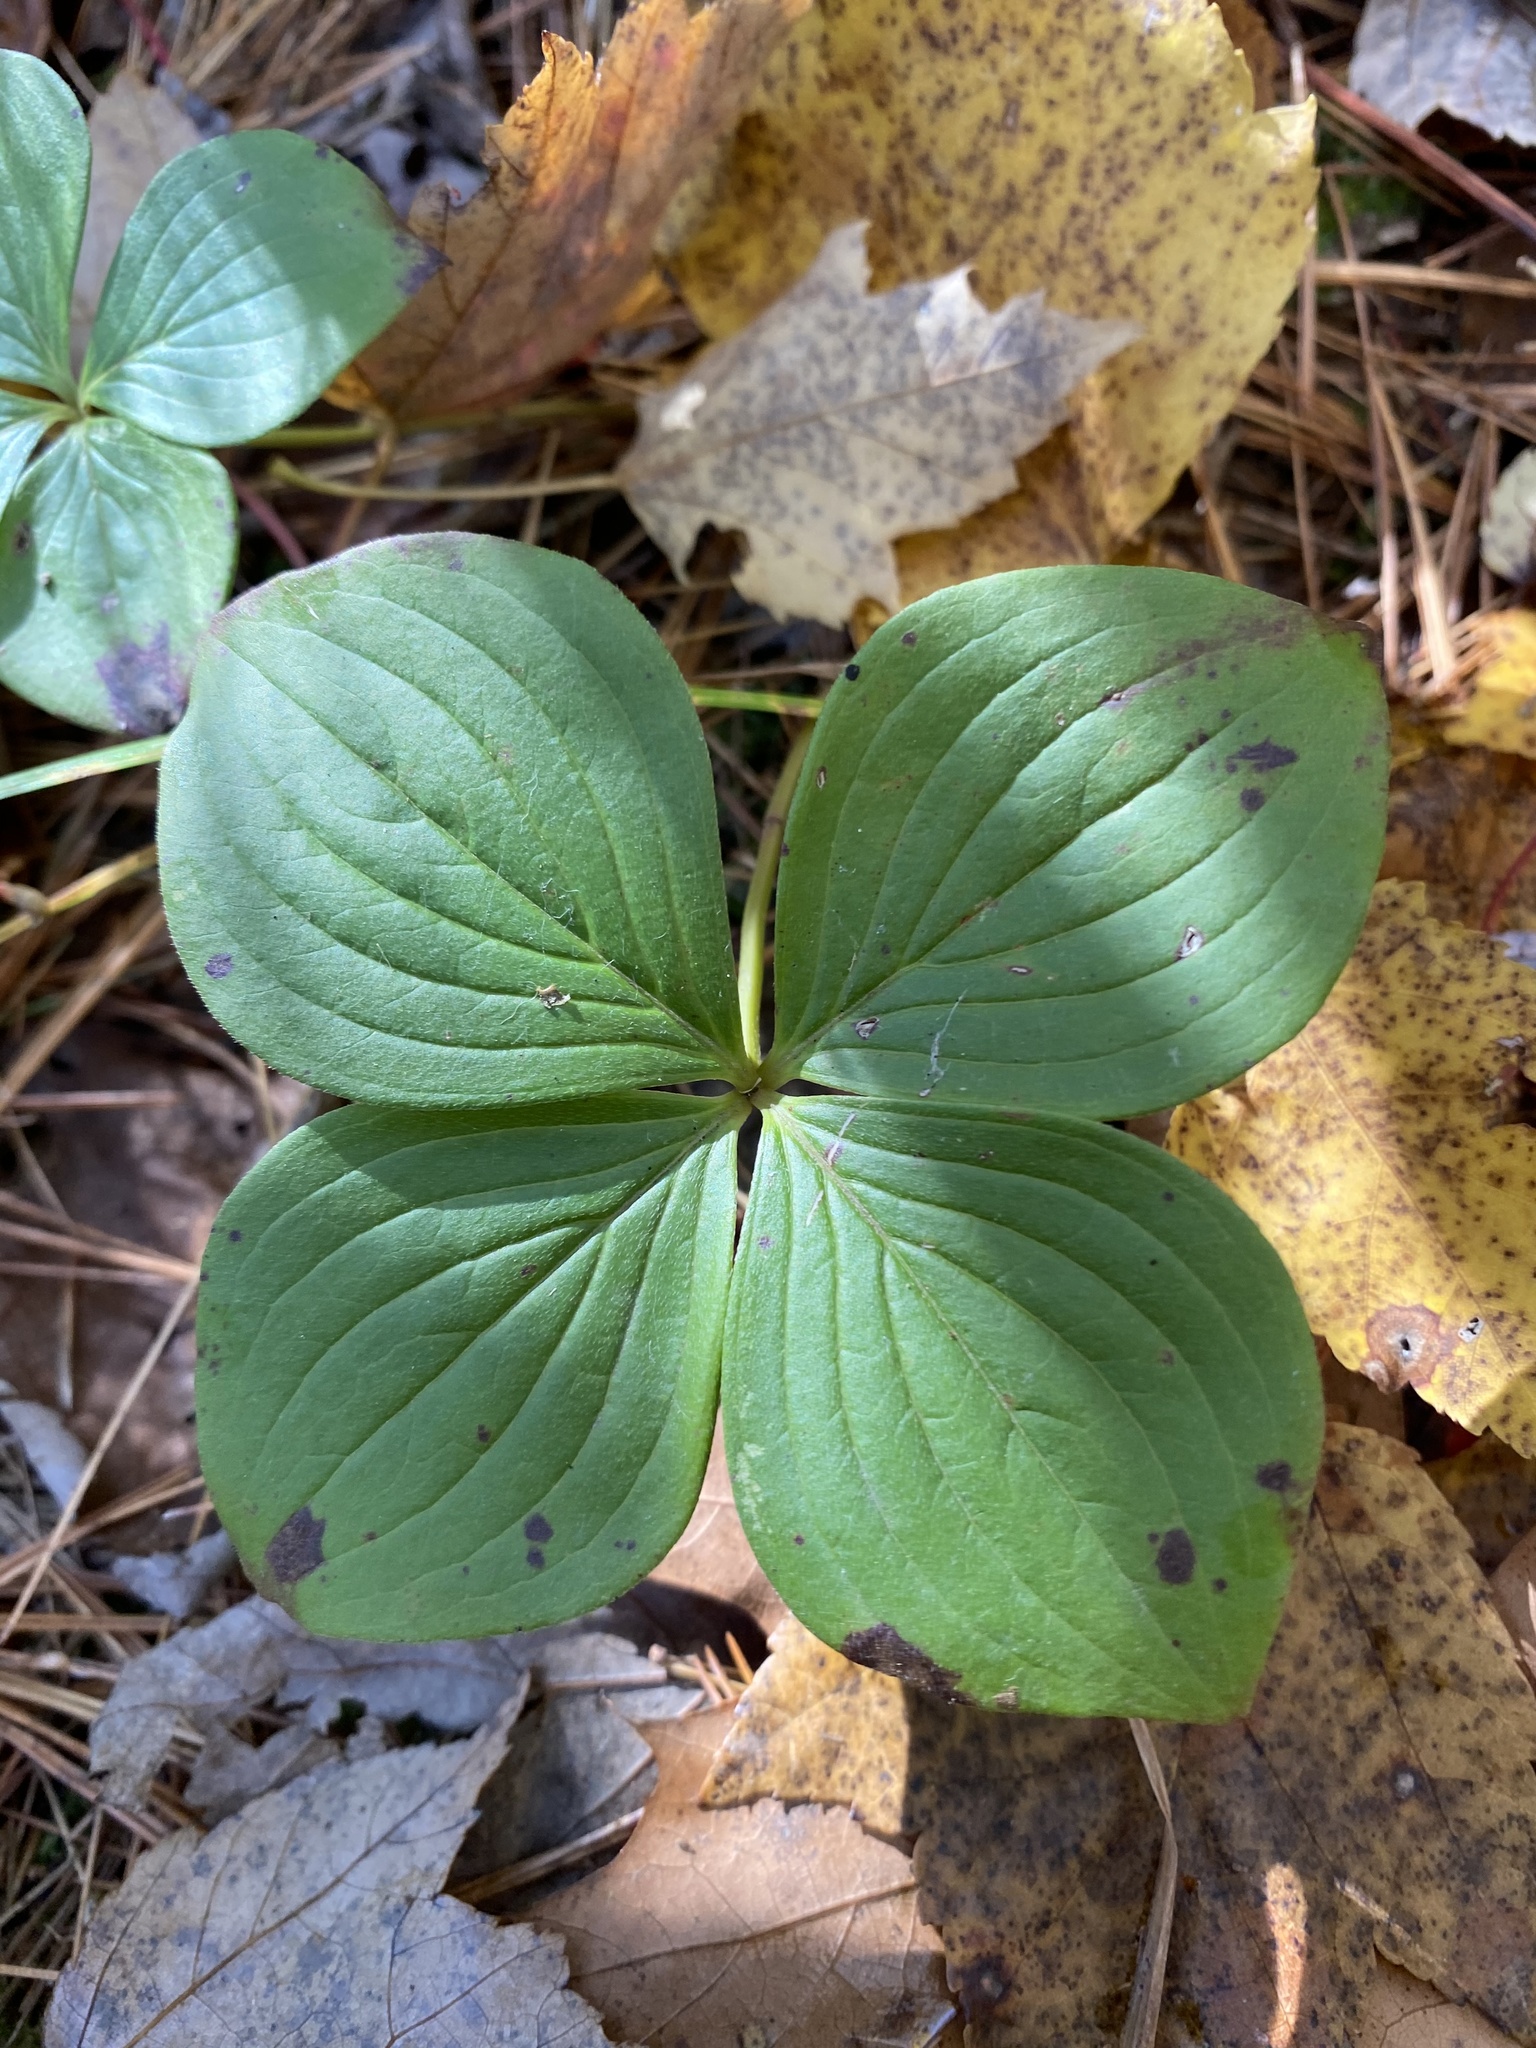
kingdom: Plantae
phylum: Tracheophyta
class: Magnoliopsida
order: Cornales
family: Cornaceae
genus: Cornus
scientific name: Cornus canadensis
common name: Creeping dogwood
